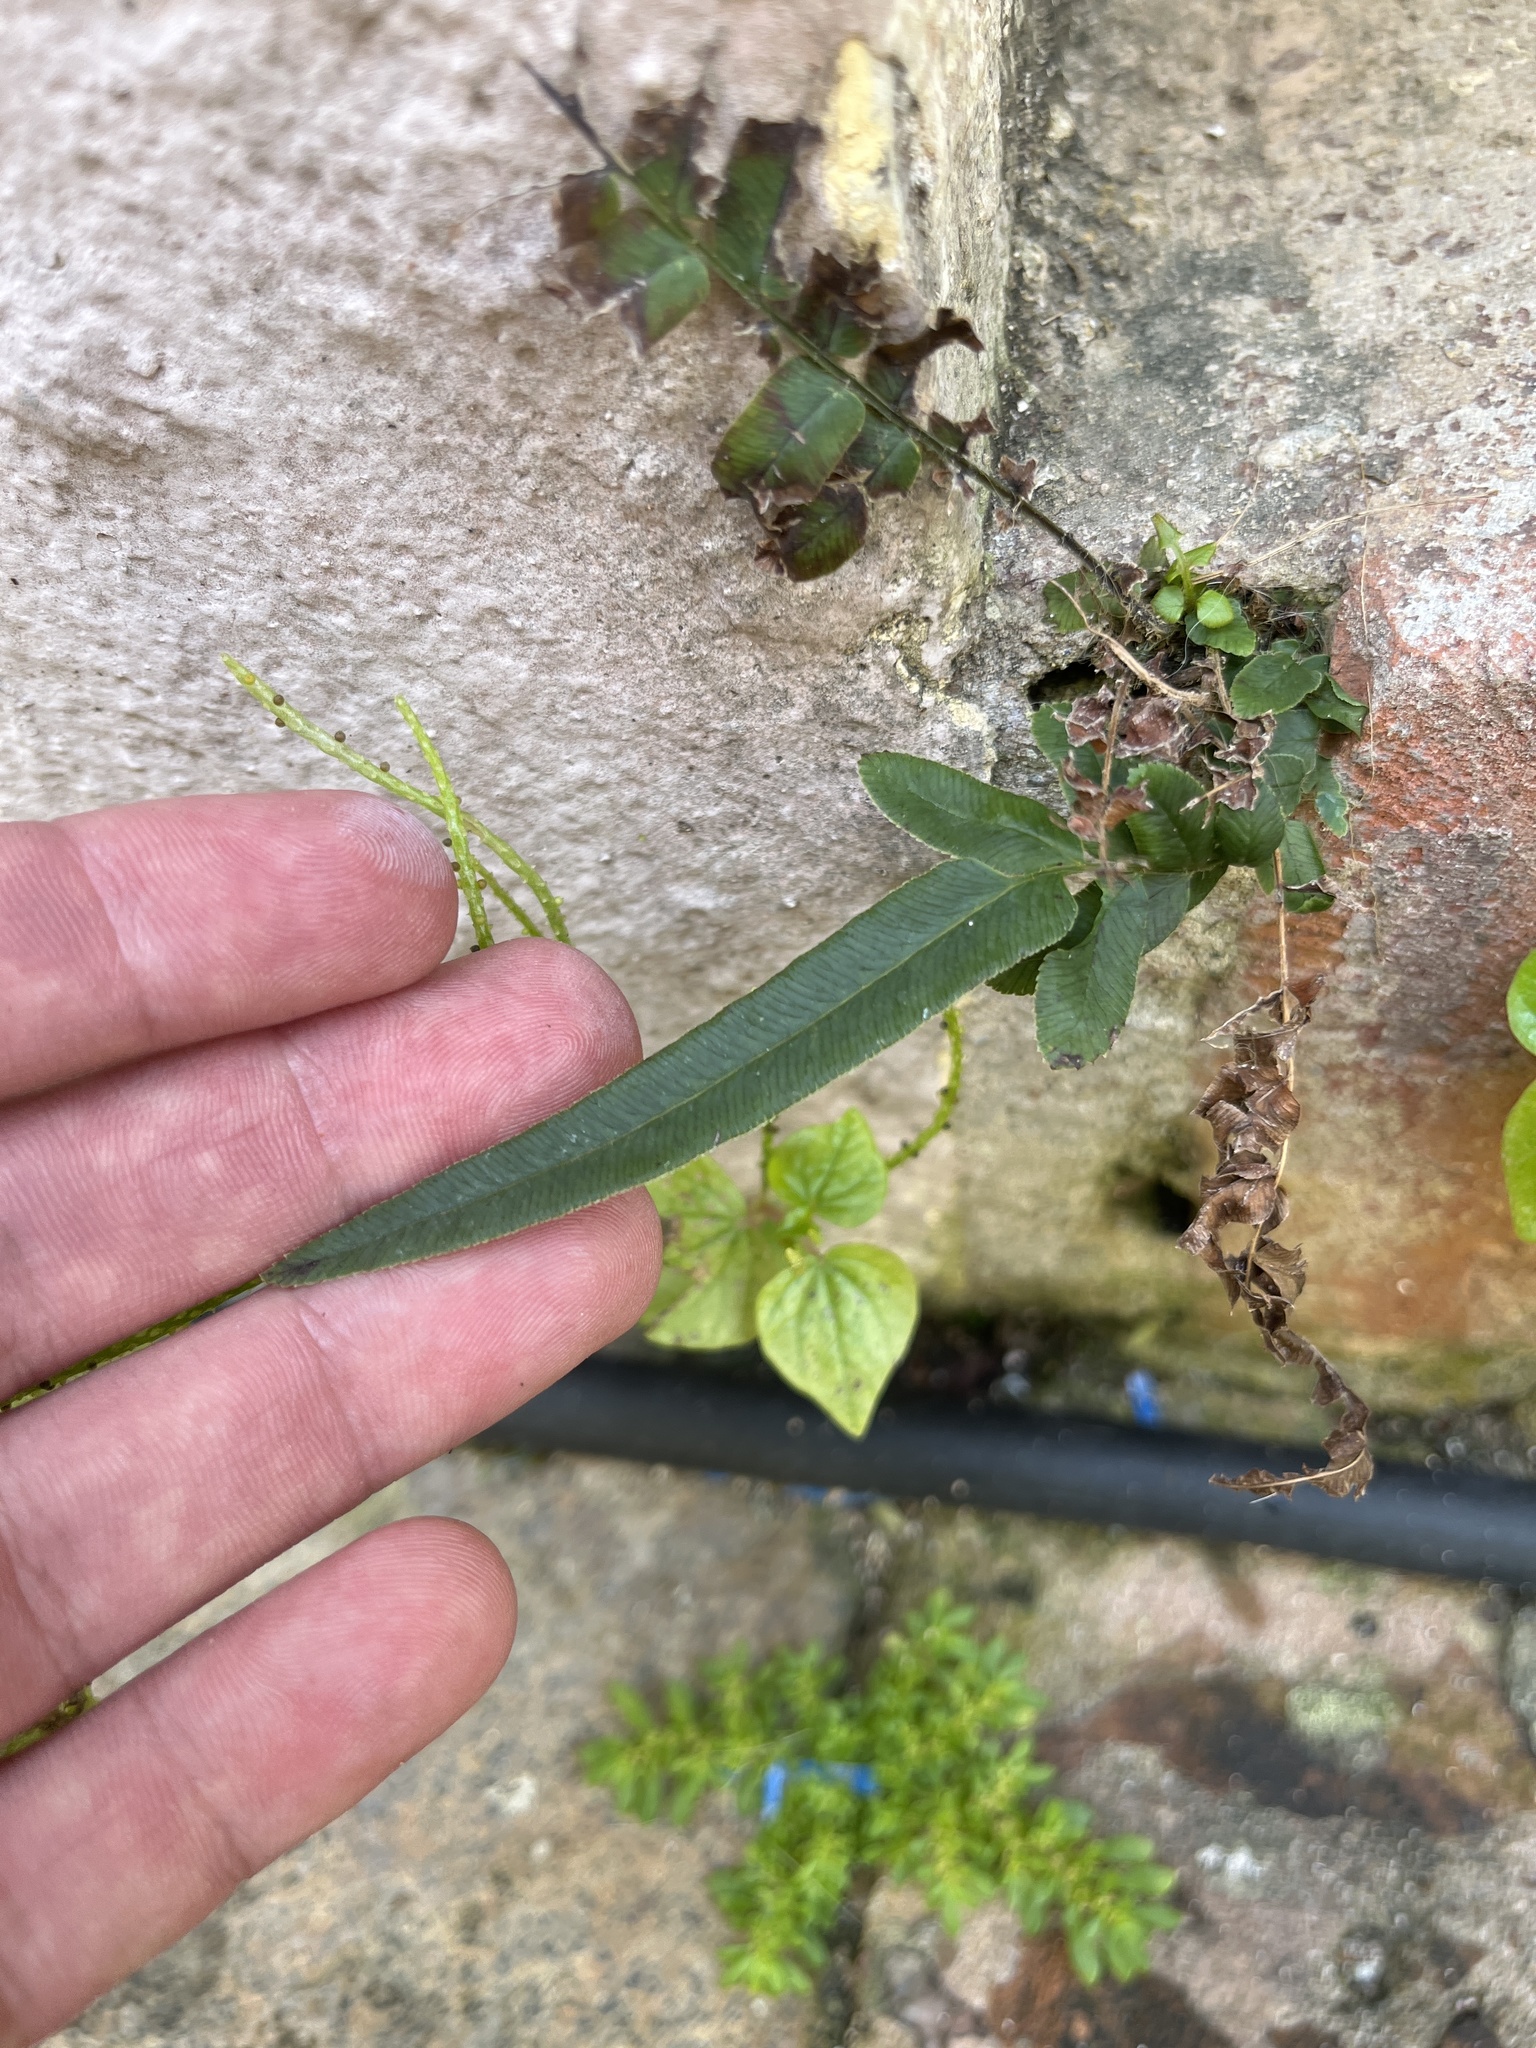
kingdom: Plantae
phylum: Tracheophyta
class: Polypodiopsida
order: Polypodiales
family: Pteridaceae
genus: Pteris
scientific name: Pteris vittata
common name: Ladder brake
